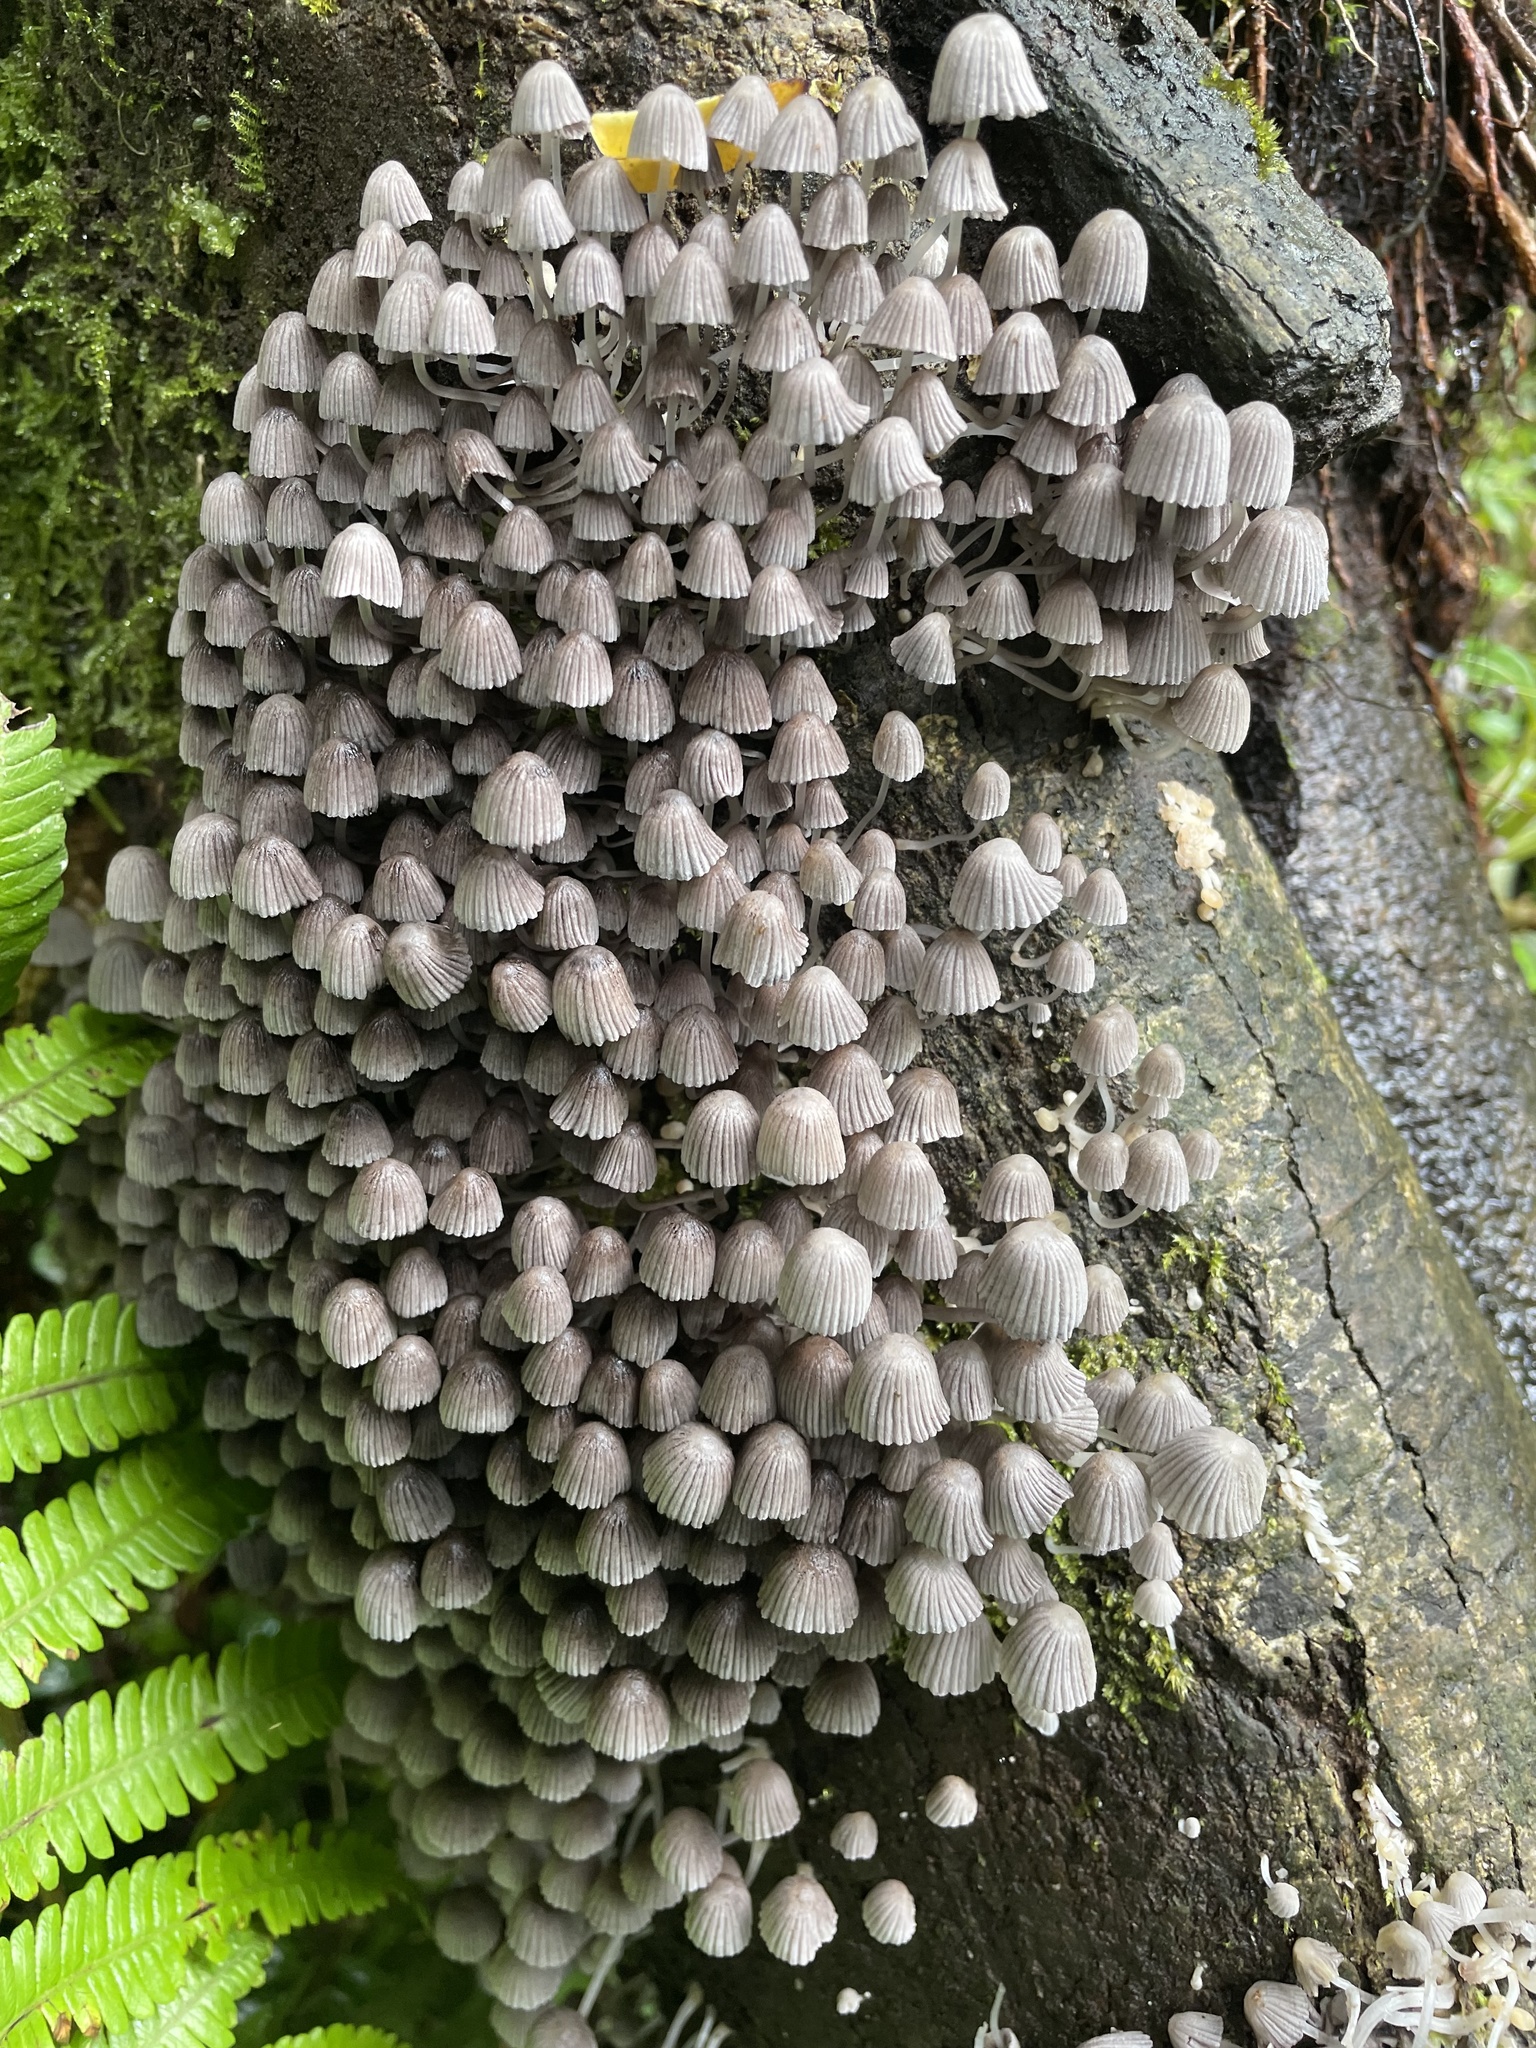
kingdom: Fungi
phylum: Basidiomycota
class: Agaricomycetes
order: Agaricales
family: Psathyrellaceae
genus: Coprinellus
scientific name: Coprinellus disseminatus
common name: Fairies' bonnets
